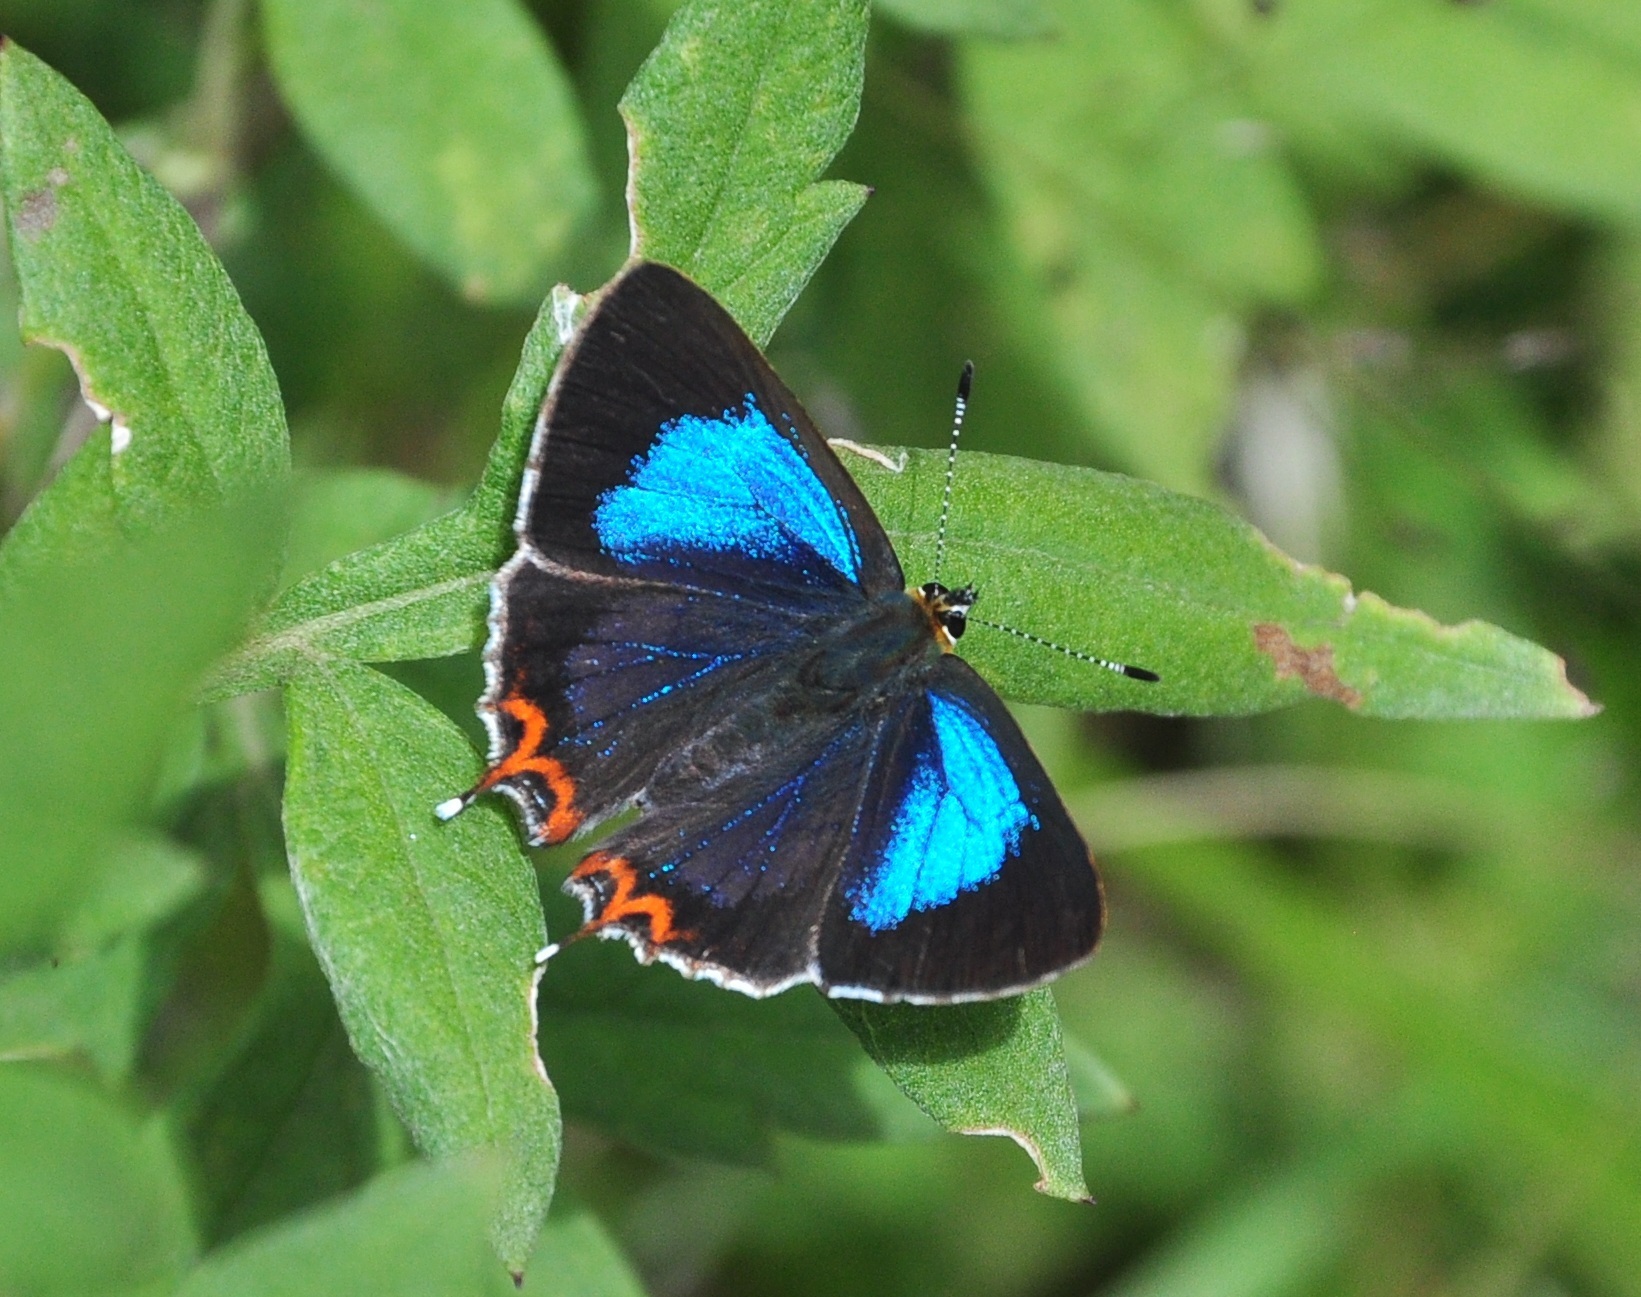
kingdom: Animalia
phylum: Arthropoda
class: Insecta
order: Lepidoptera
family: Lycaenidae
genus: Heliophorus
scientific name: Heliophorus
